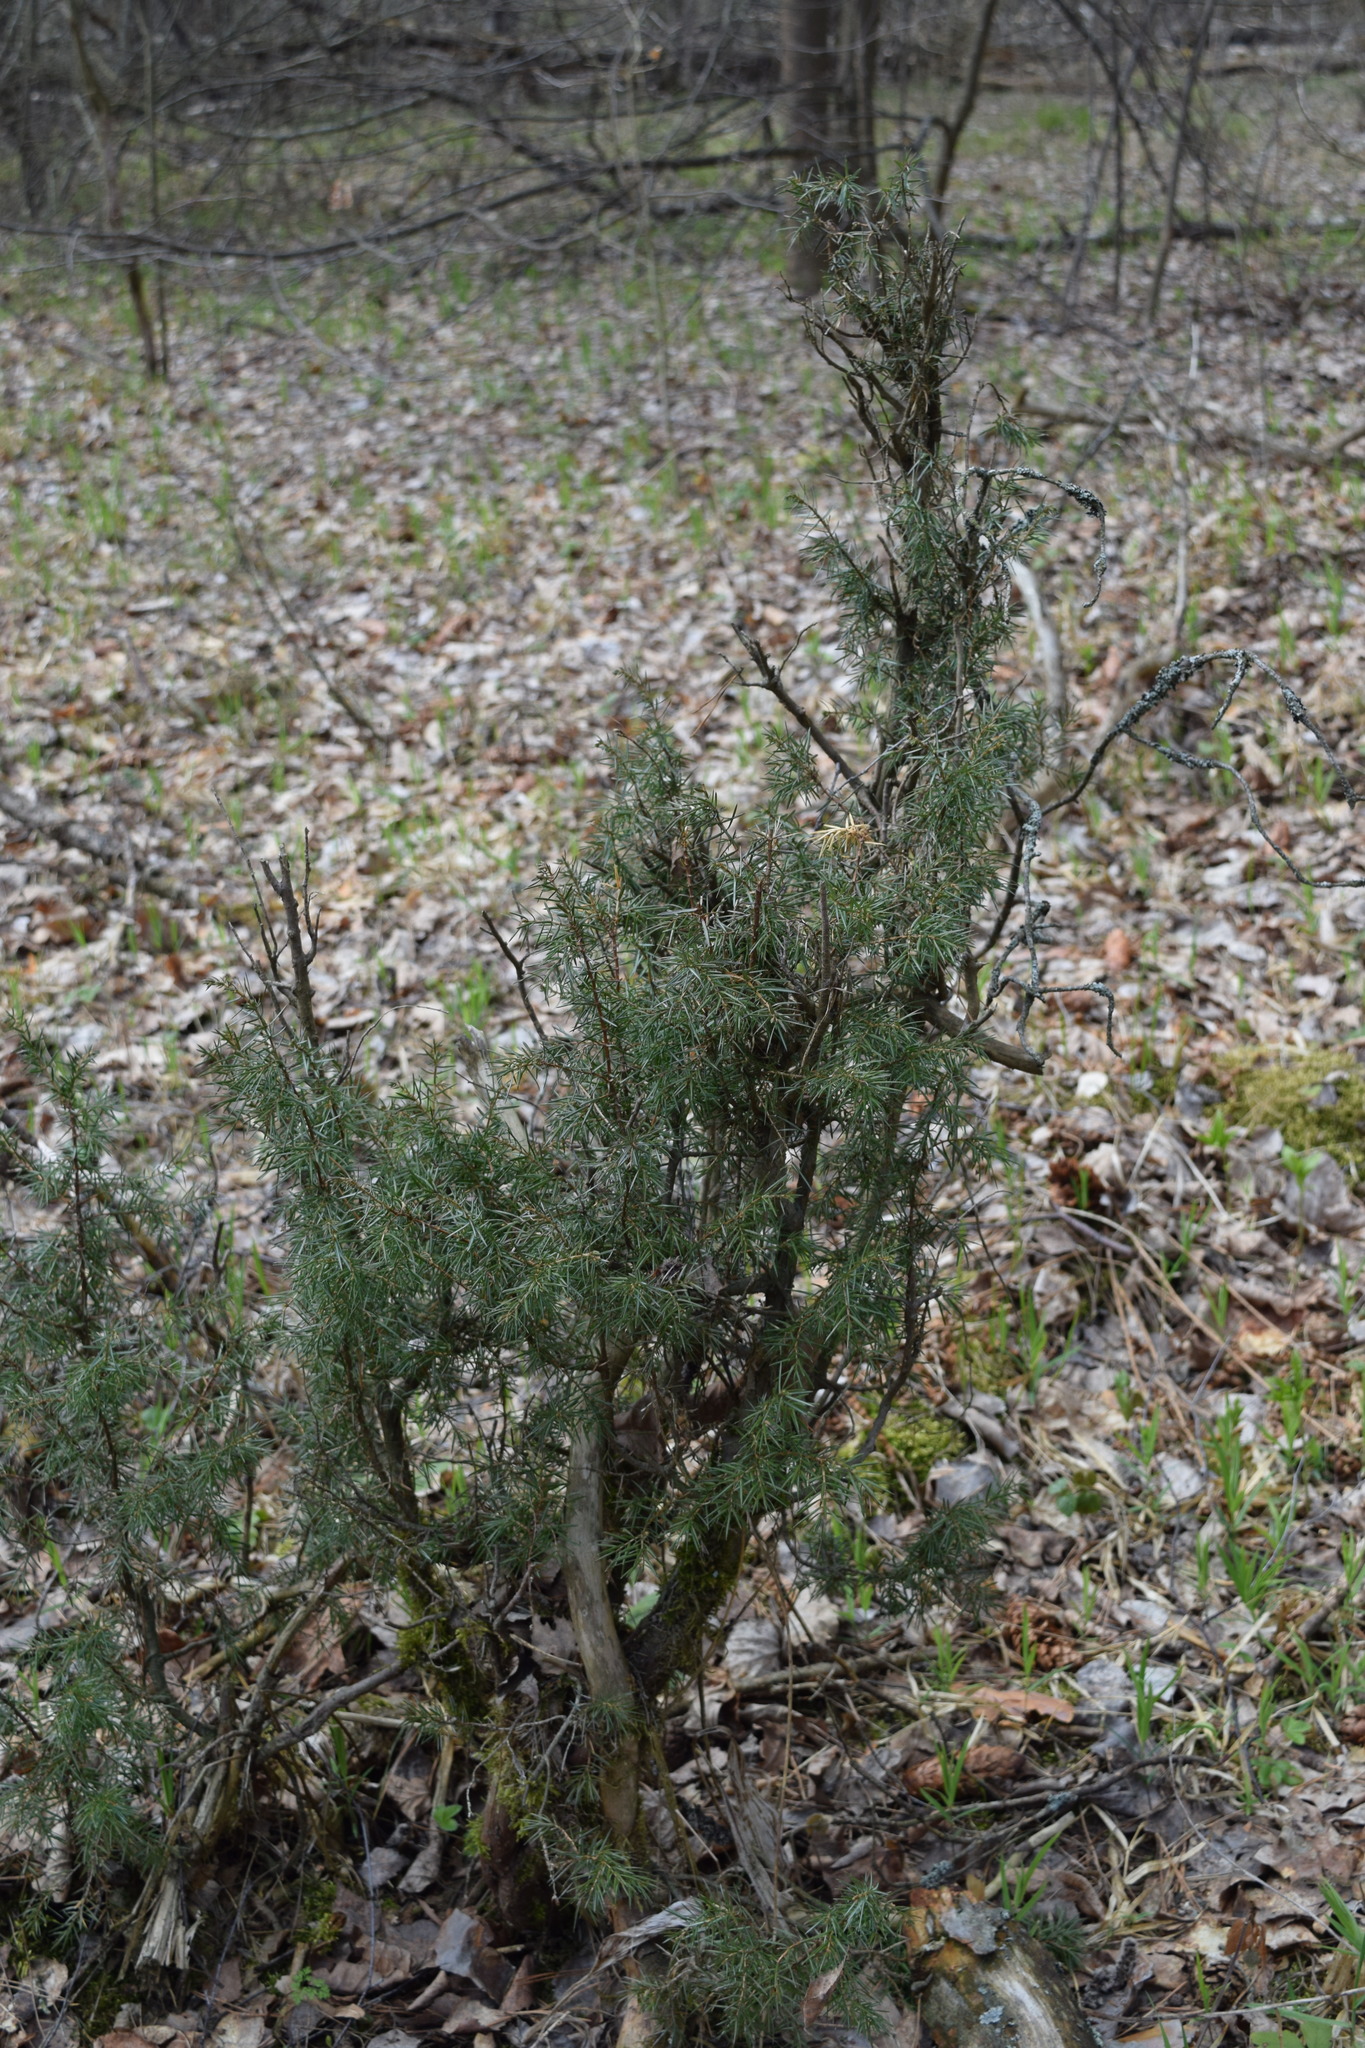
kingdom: Plantae
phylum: Tracheophyta
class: Pinopsida
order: Pinales
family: Cupressaceae
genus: Juniperus
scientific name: Juniperus communis
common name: Common juniper
